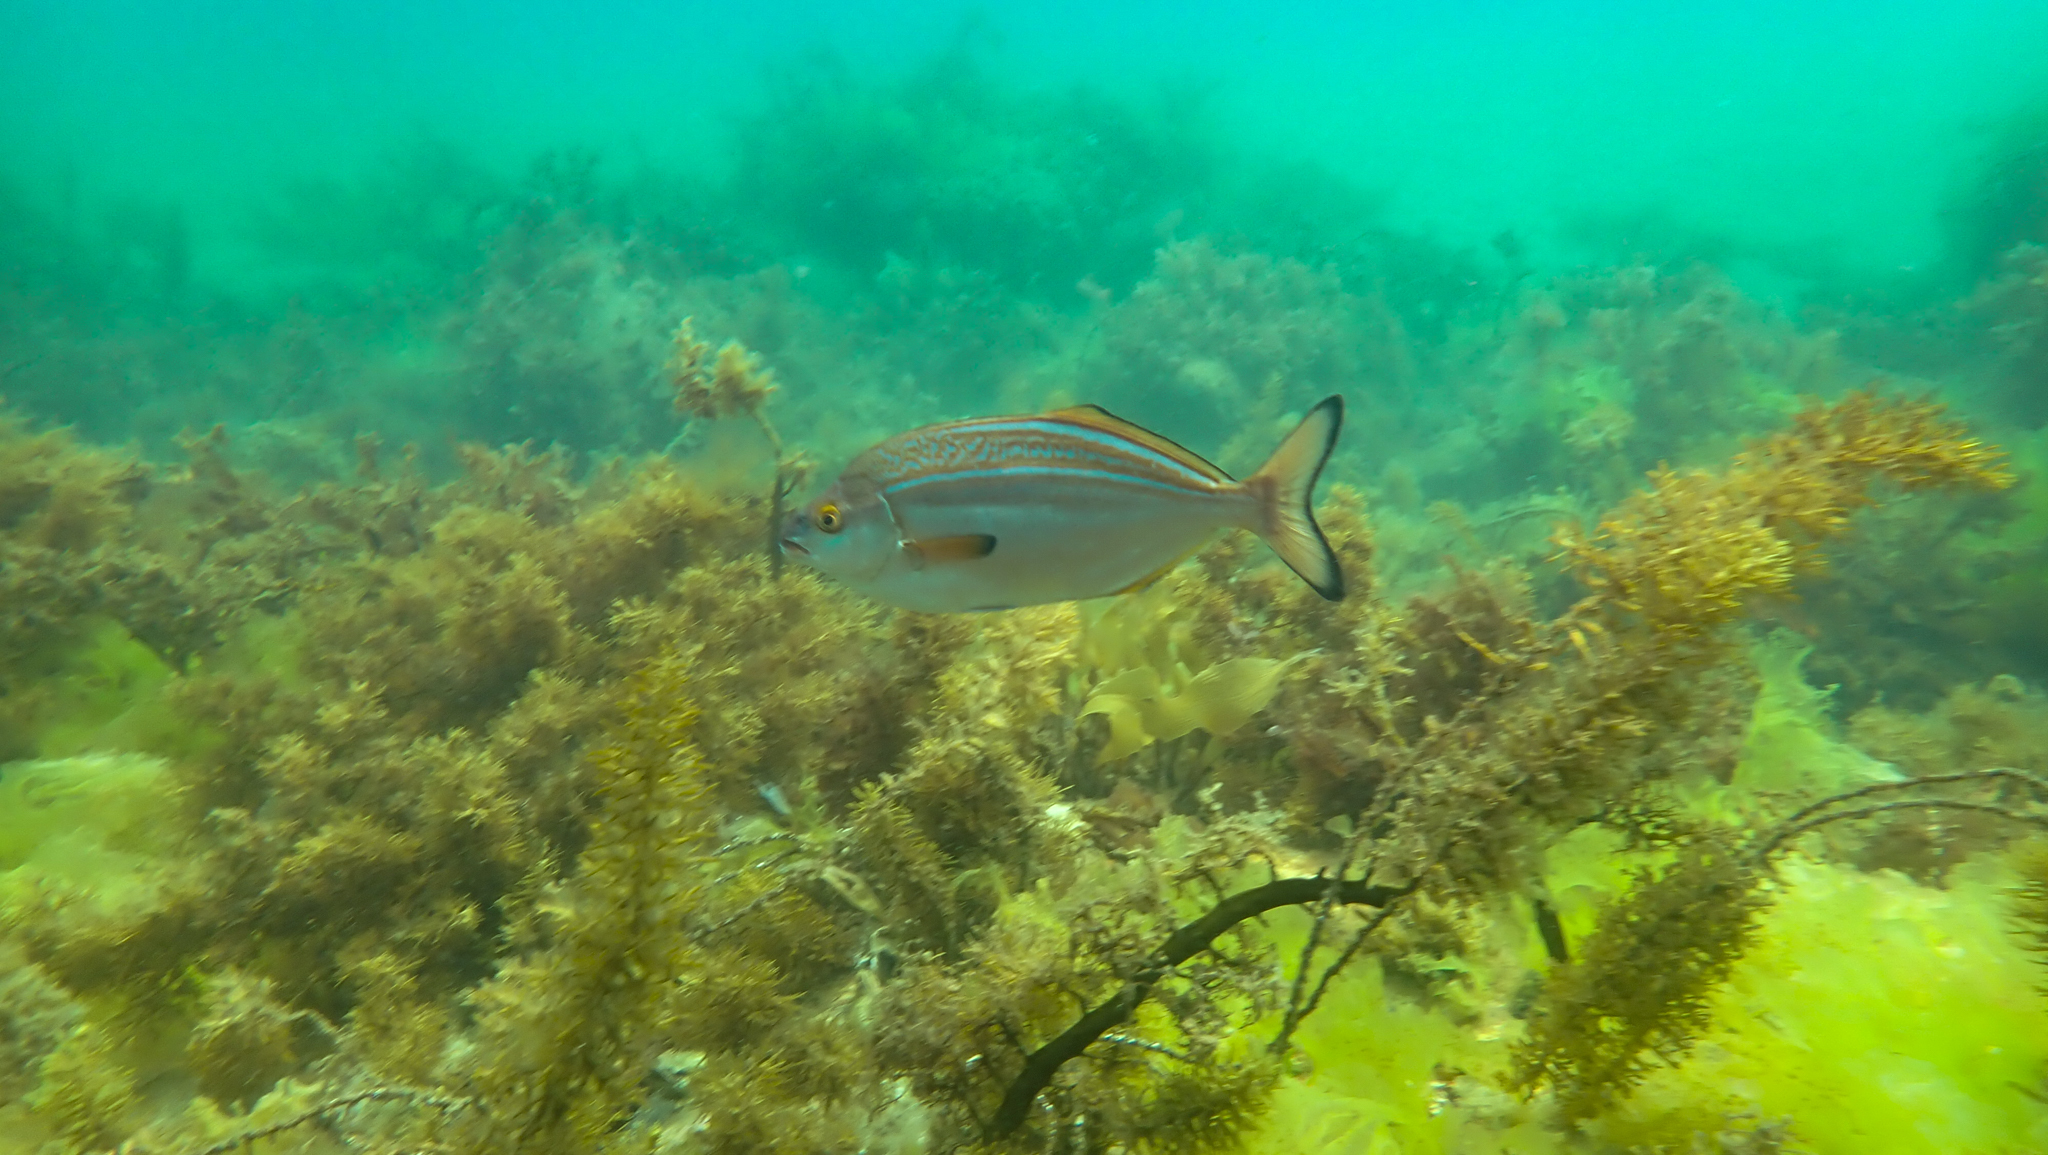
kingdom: Animalia
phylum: Chordata
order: Perciformes
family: Latridae
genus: Latridopsis
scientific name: Latridopsis forsteri
